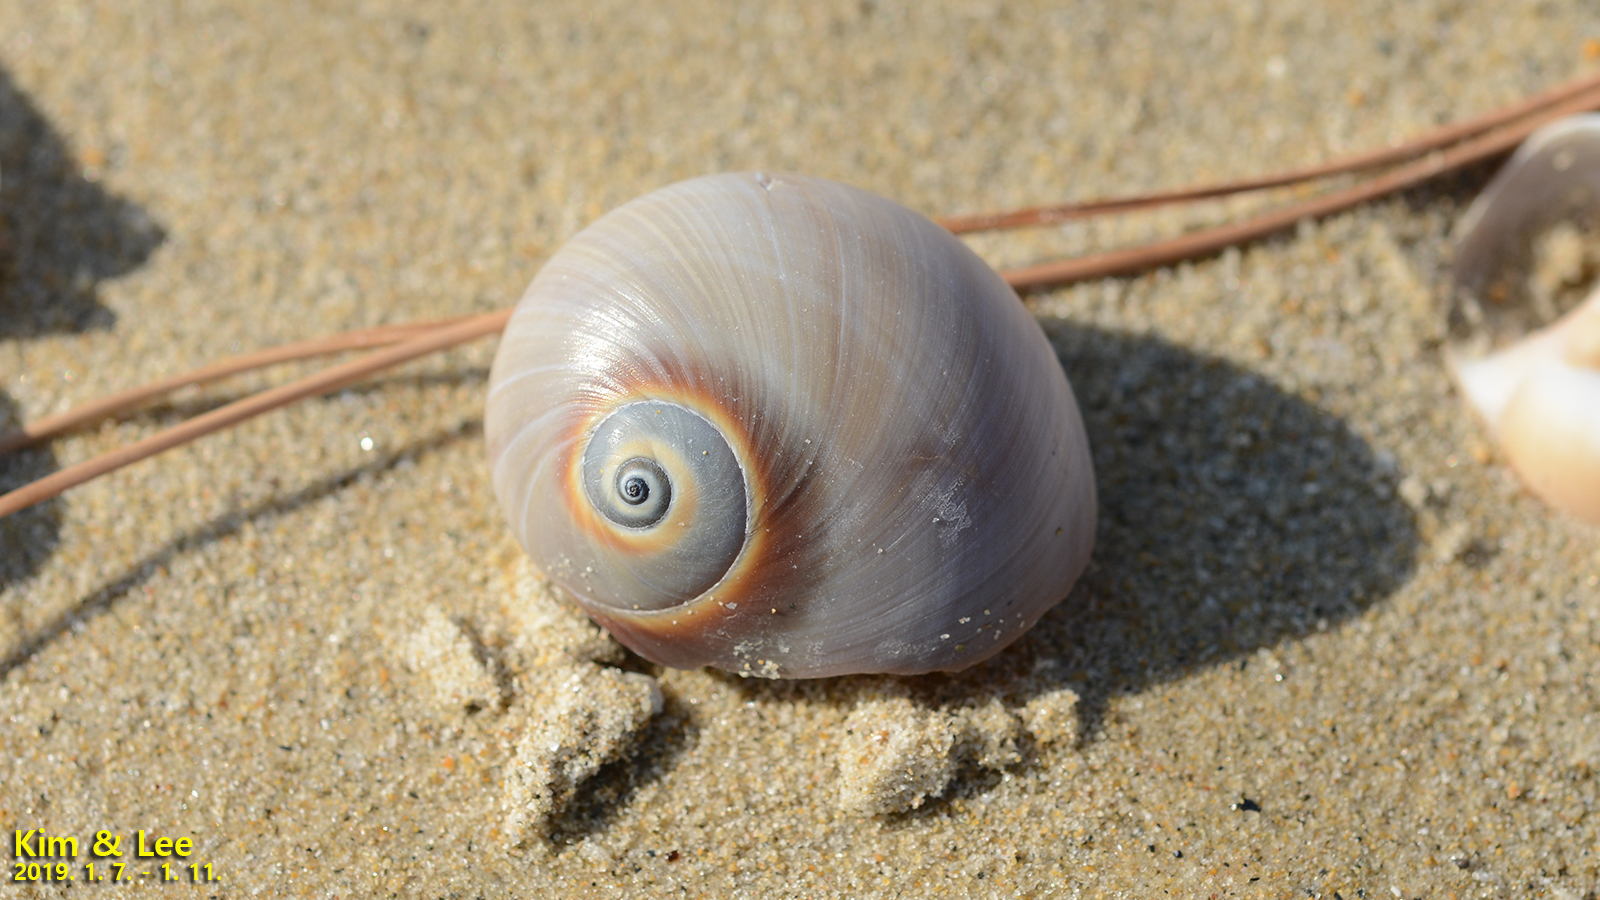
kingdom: Animalia
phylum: Mollusca
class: Gastropoda
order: Littorinimorpha
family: Naticidae
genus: Neverita
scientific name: Neverita didyma
